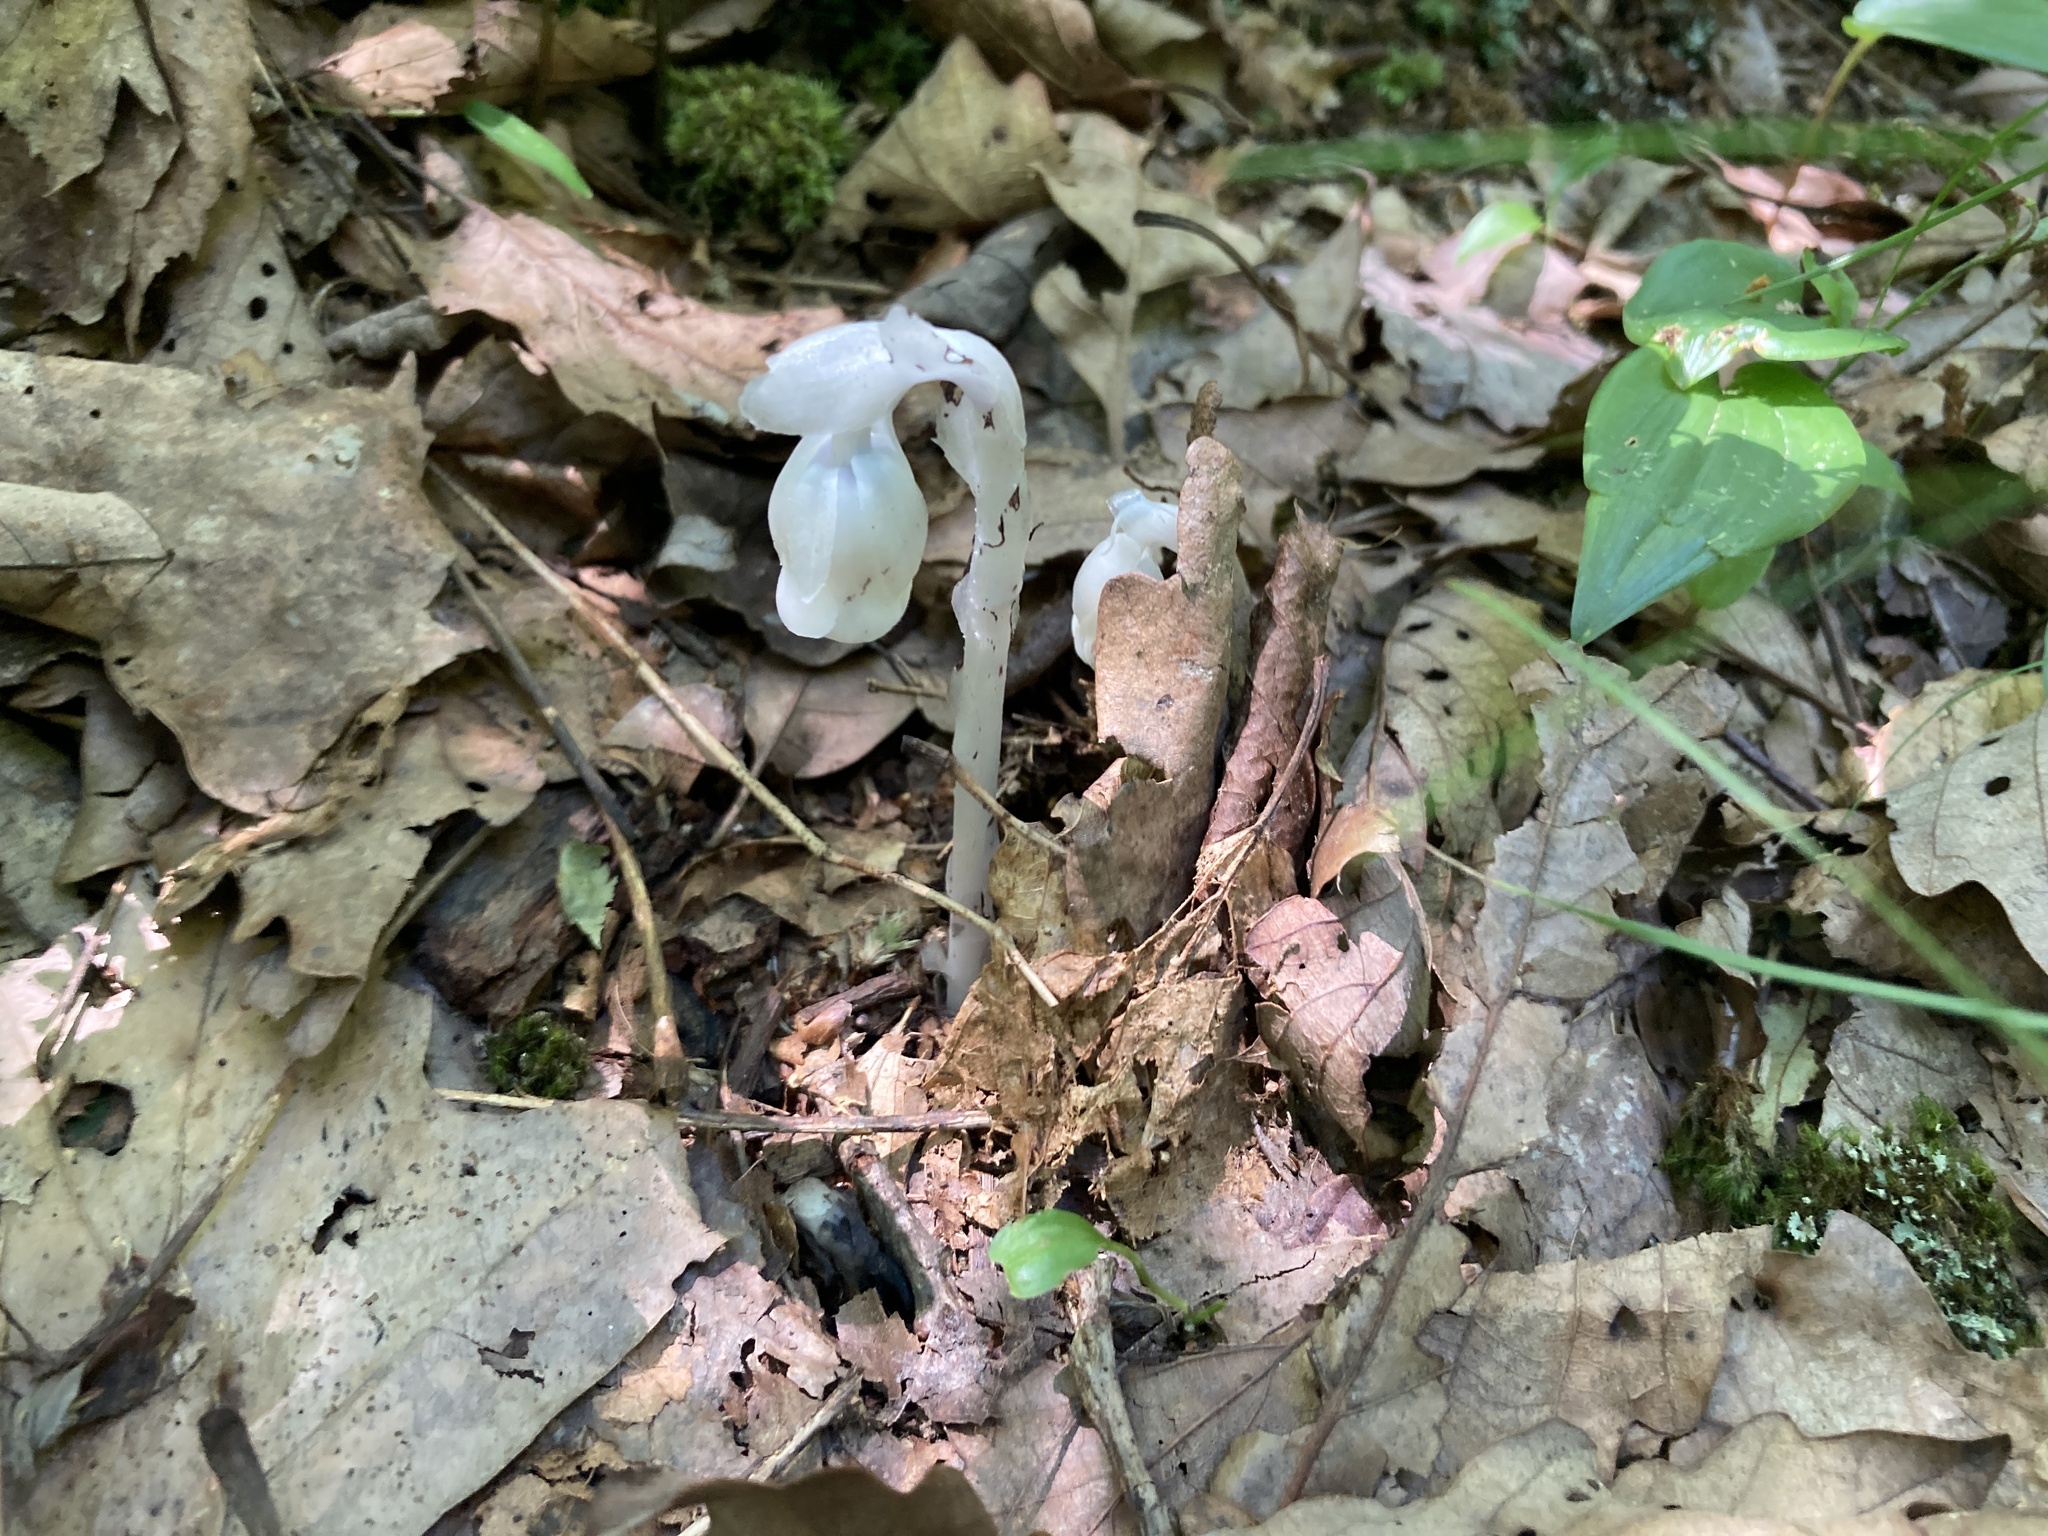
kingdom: Plantae
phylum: Tracheophyta
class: Magnoliopsida
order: Ericales
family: Ericaceae
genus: Monotropa
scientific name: Monotropa uniflora
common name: Convulsion root
